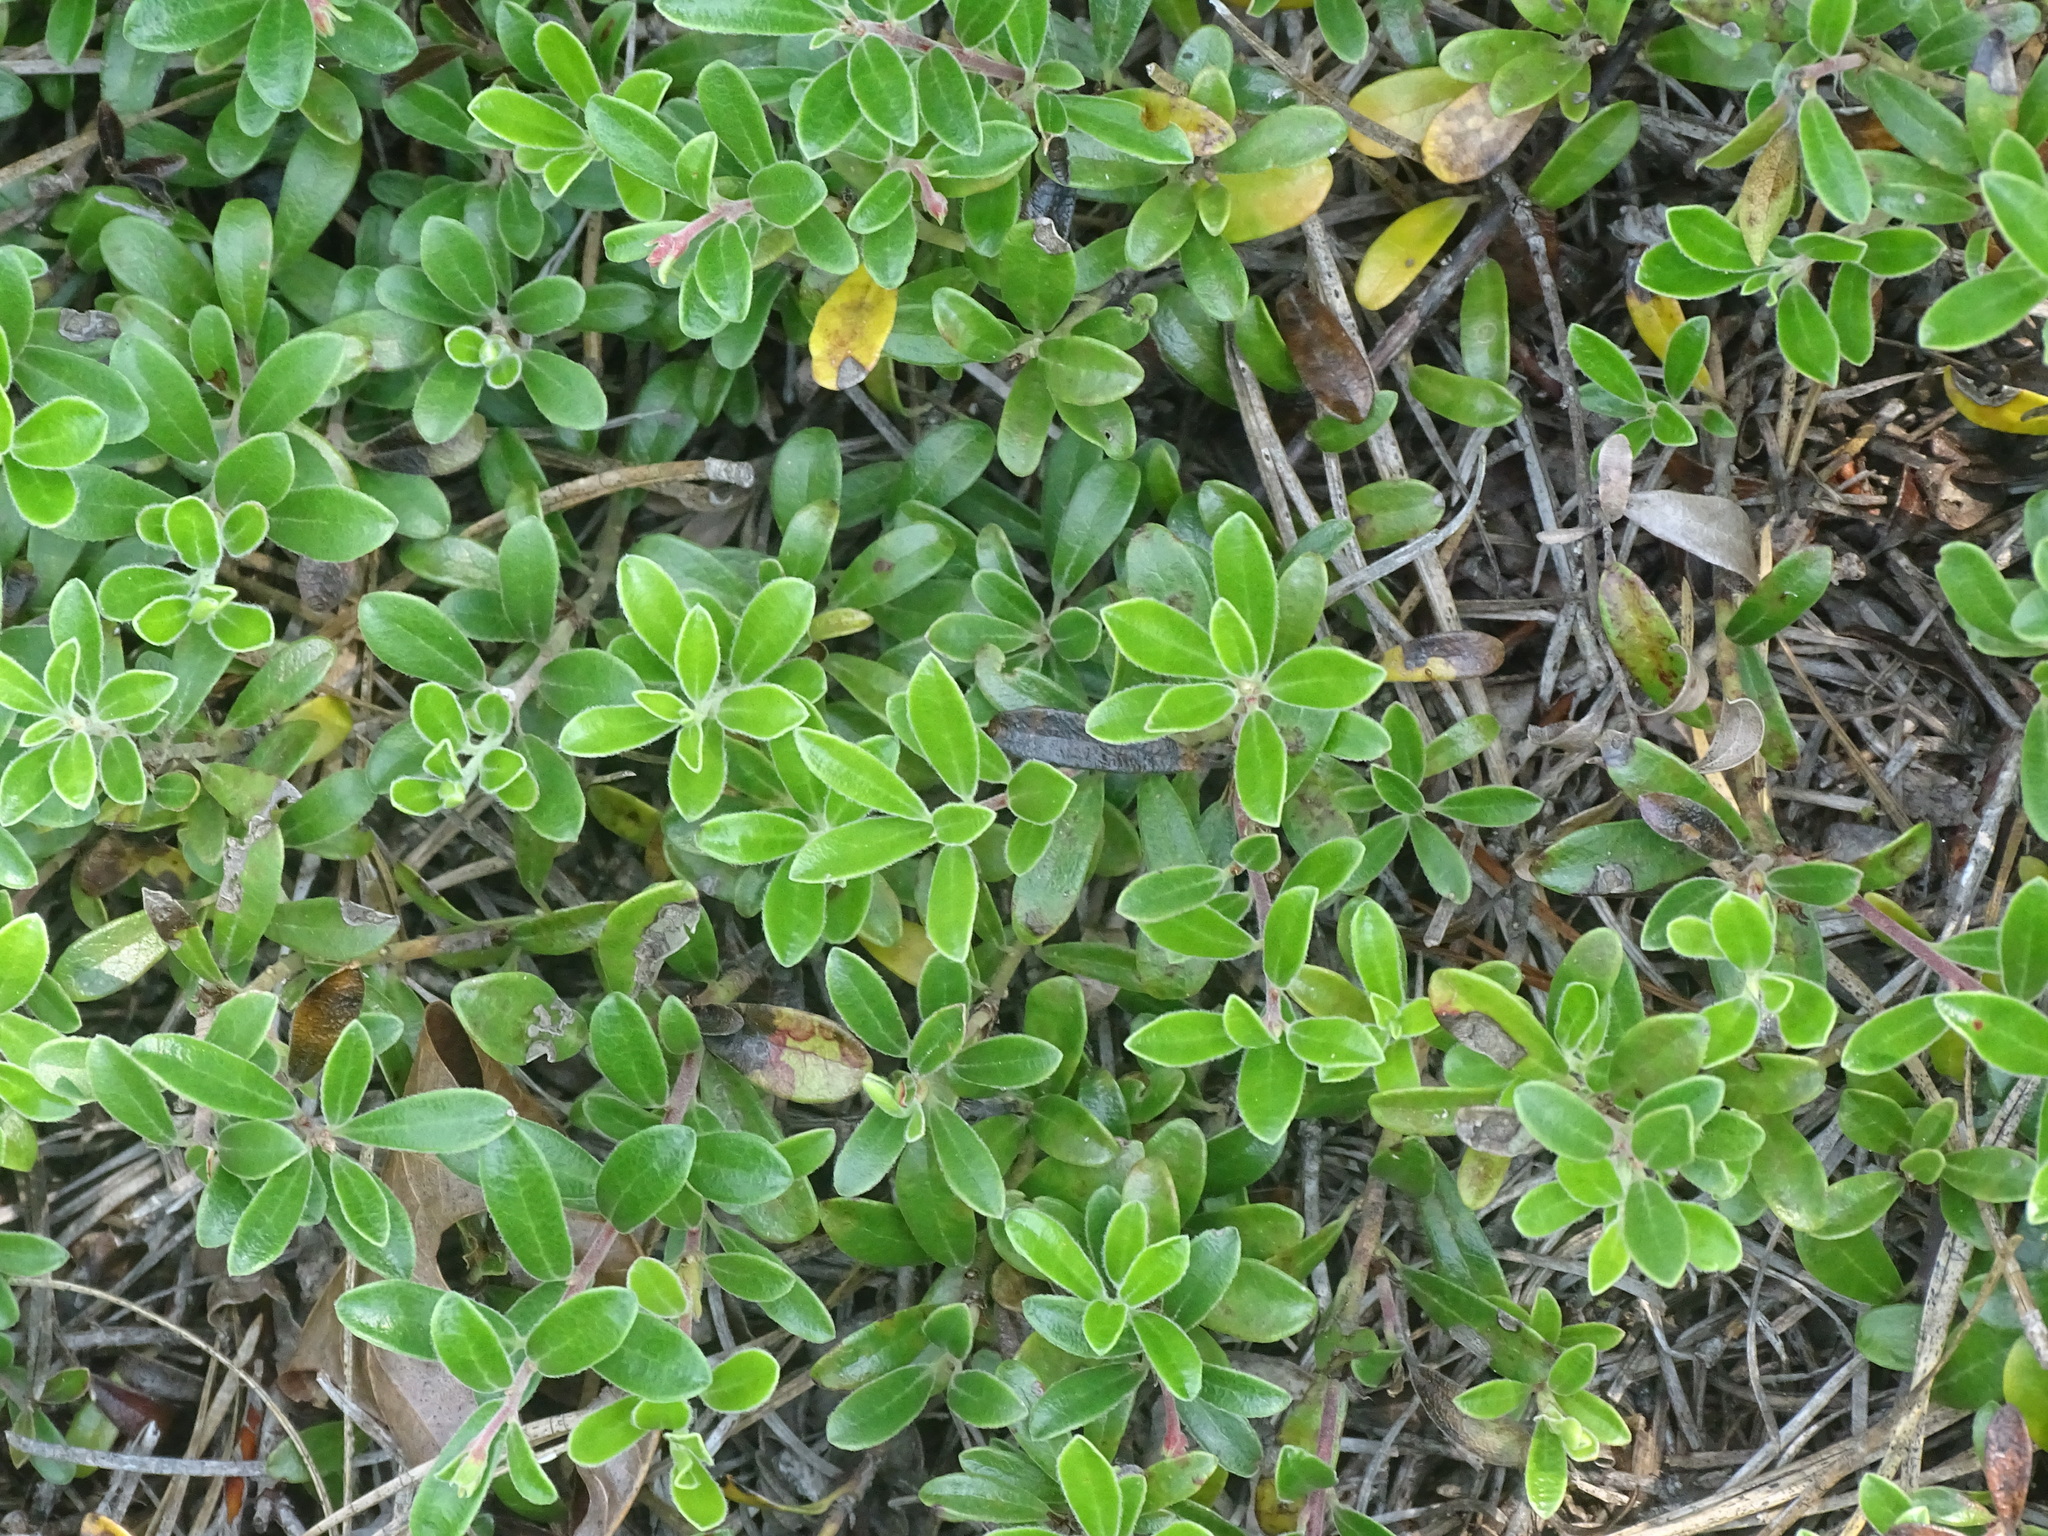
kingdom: Plantae
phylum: Tracheophyta
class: Magnoliopsida
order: Ericales
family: Ericaceae
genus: Arctostaphylos
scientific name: Arctostaphylos uva-ursi
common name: Bearberry
